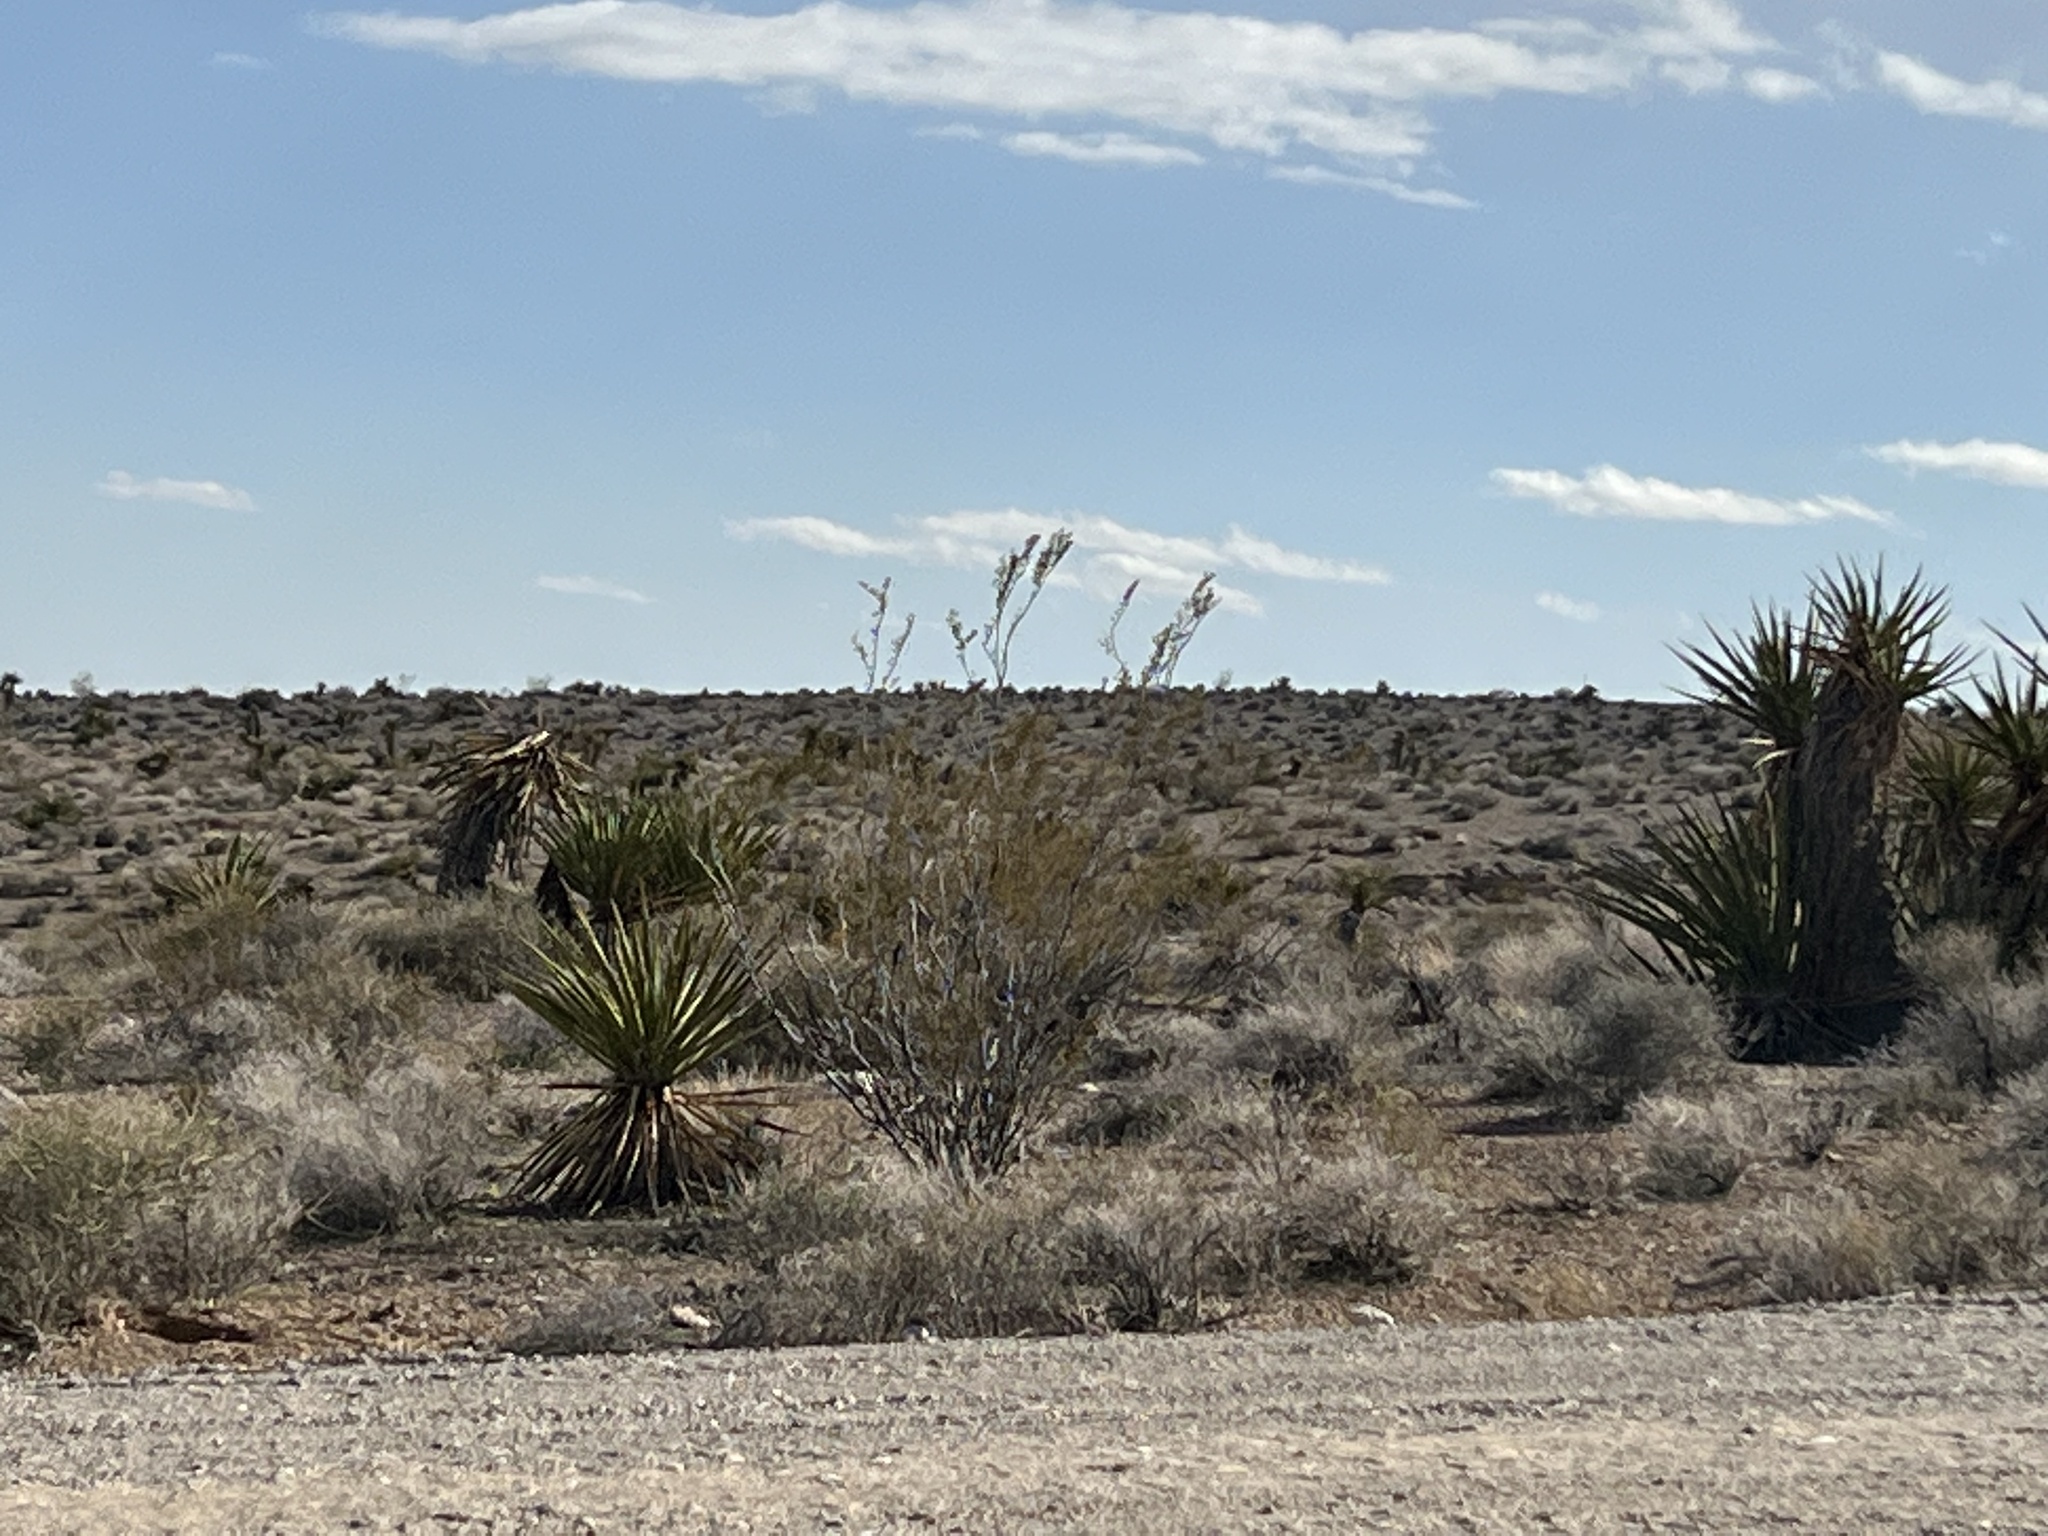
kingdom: Plantae
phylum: Tracheophyta
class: Magnoliopsida
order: Zygophyllales
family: Zygophyllaceae
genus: Larrea
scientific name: Larrea tridentata
